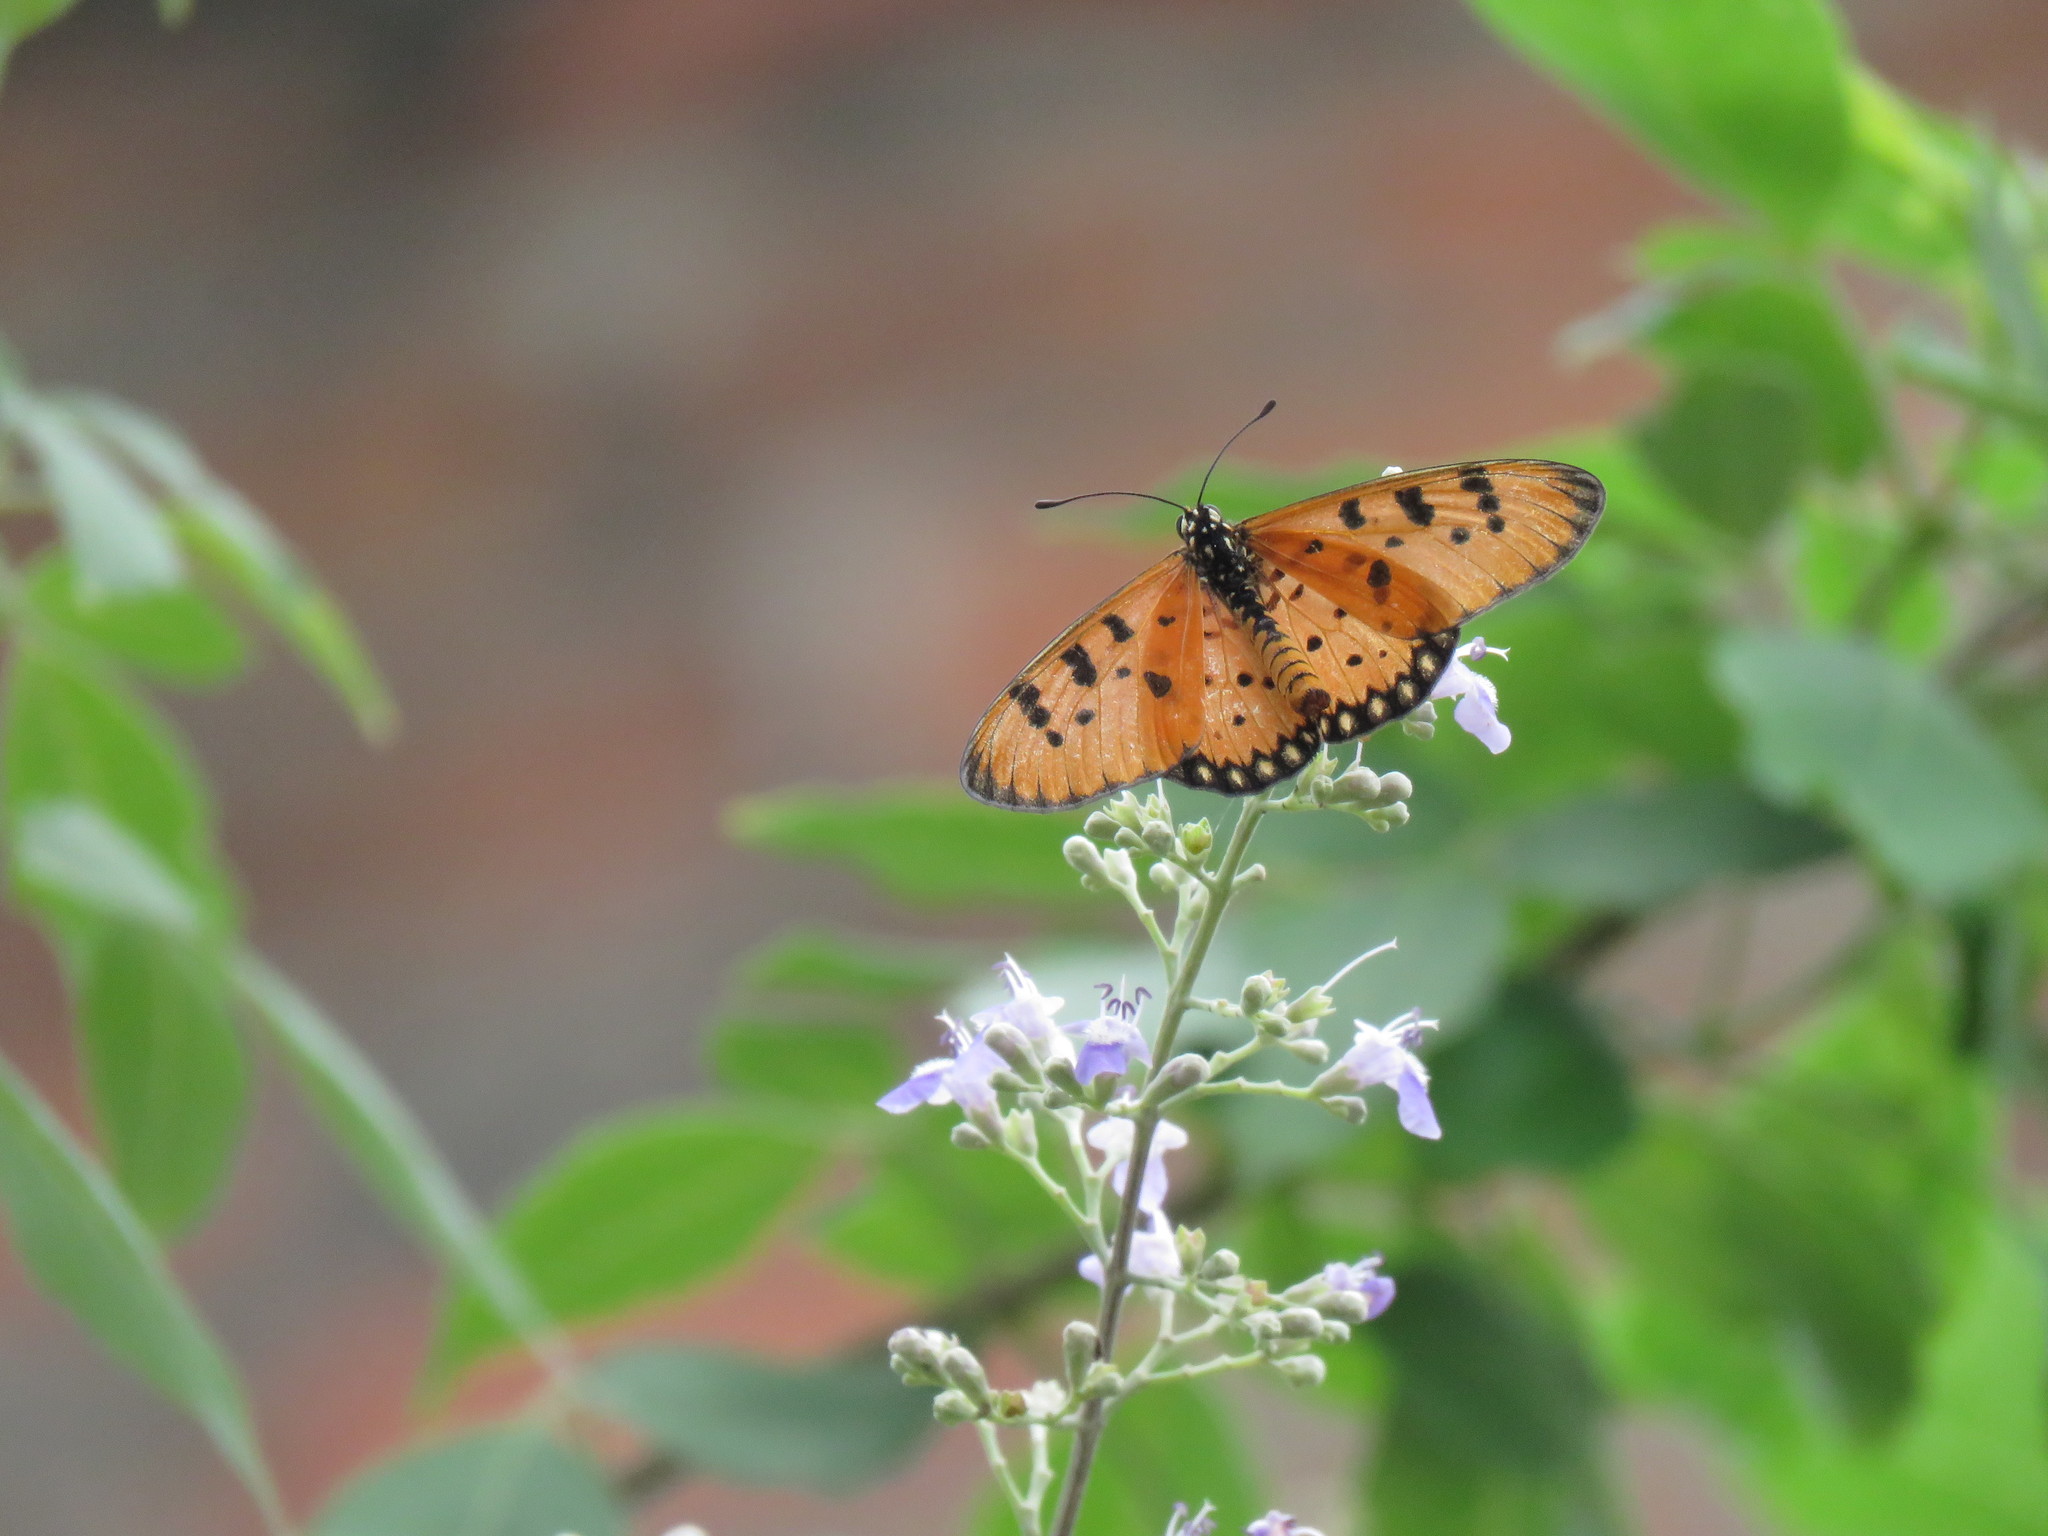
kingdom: Animalia
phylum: Arthropoda
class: Insecta
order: Lepidoptera
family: Nymphalidae
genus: Acraea
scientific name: Acraea terpsicore
